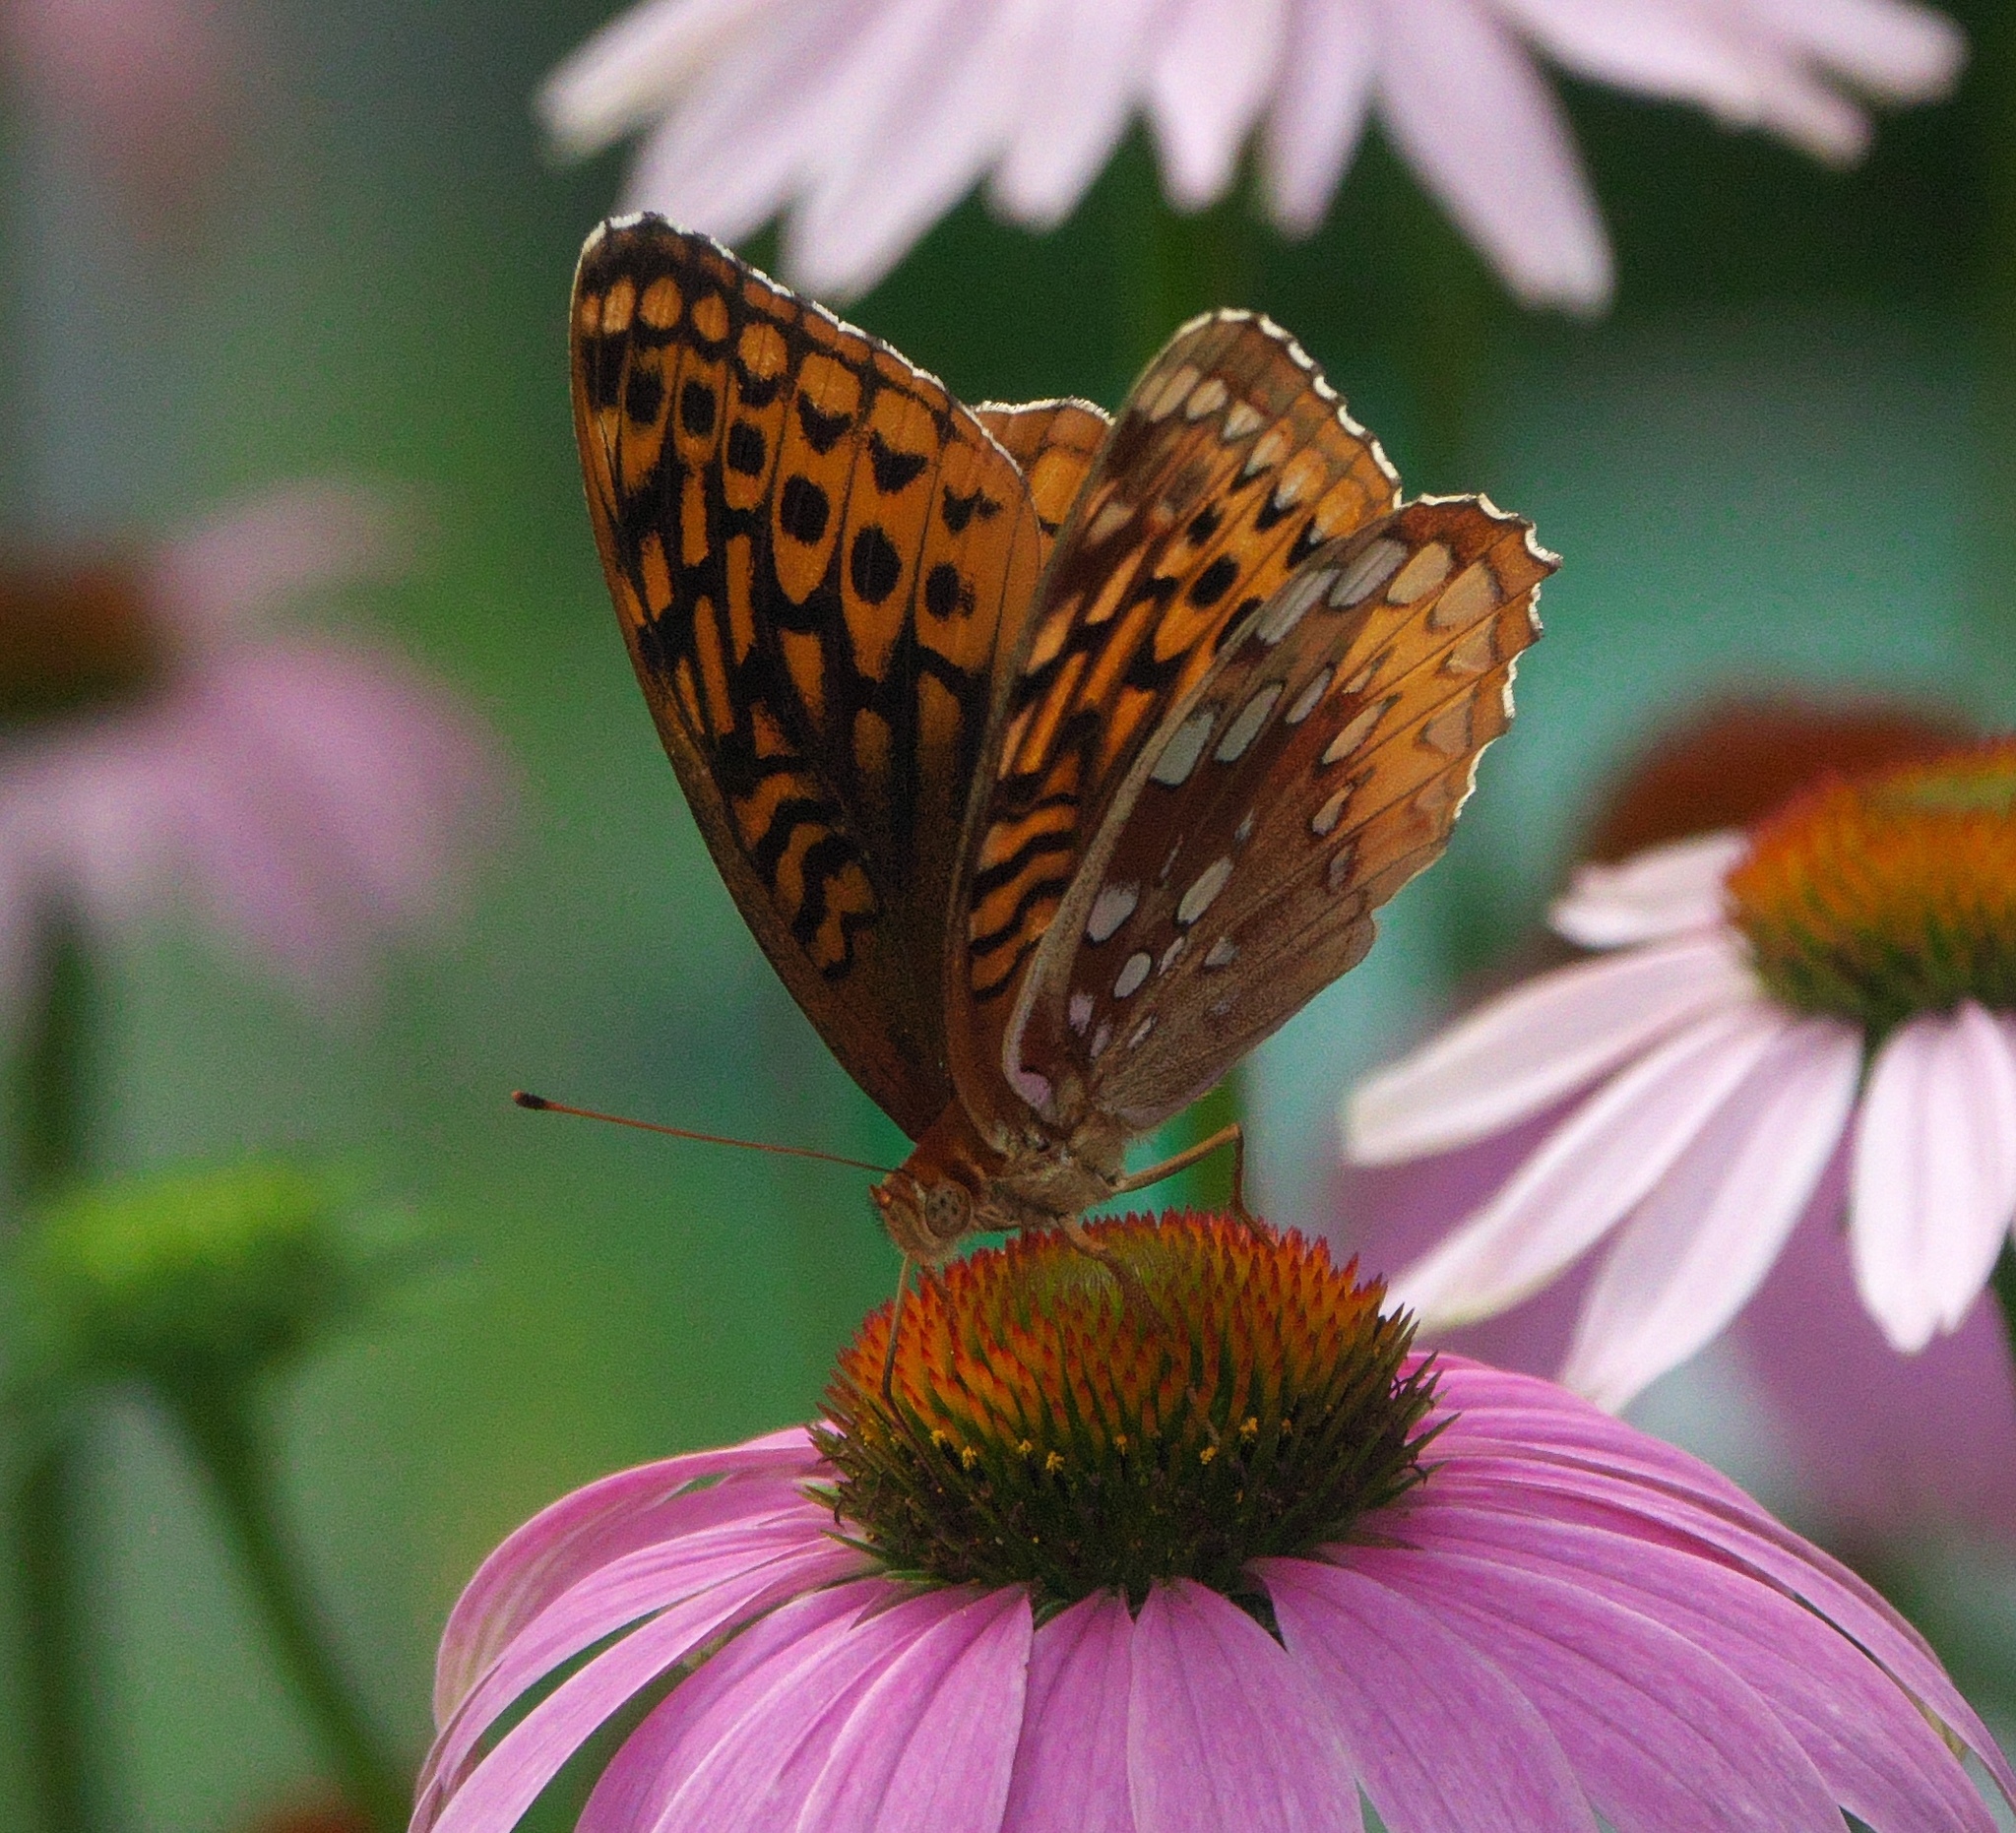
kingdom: Animalia
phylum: Arthropoda
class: Insecta
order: Lepidoptera
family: Nymphalidae
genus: Speyeria
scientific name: Speyeria cybele
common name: Great spangled fritillary
